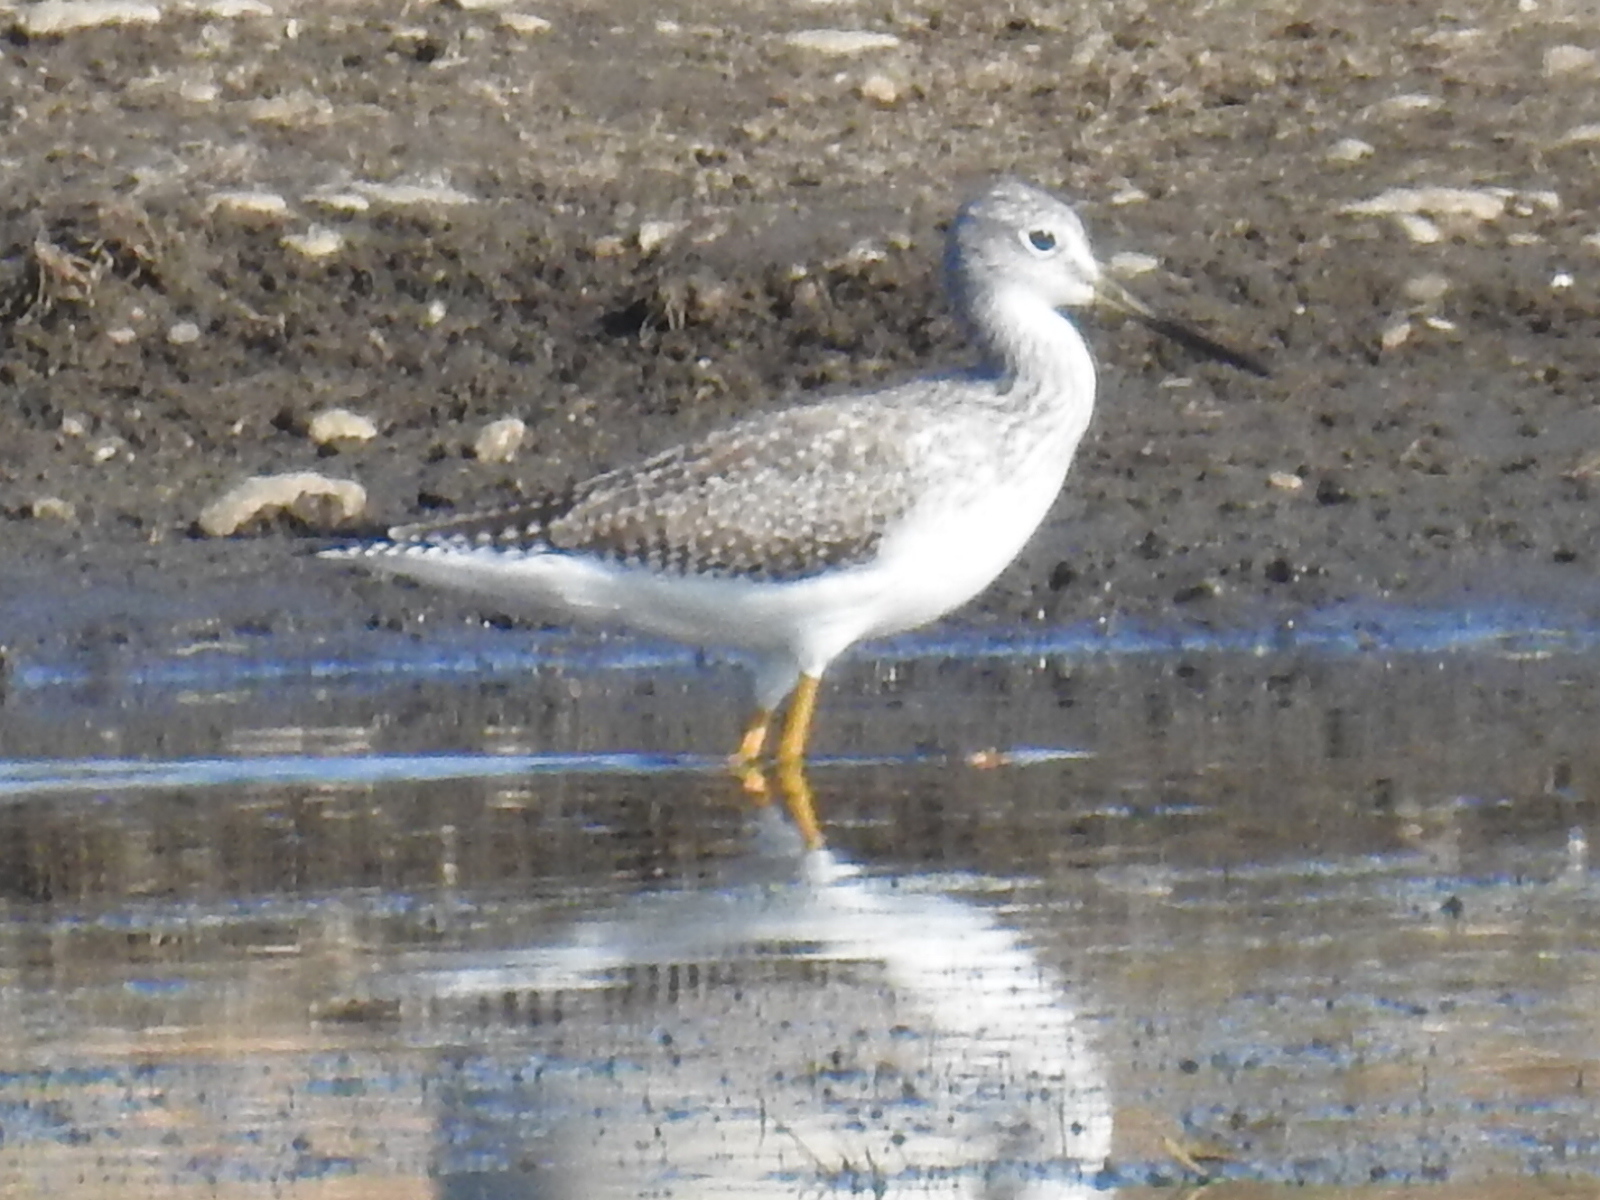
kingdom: Animalia
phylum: Chordata
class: Aves
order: Charadriiformes
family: Scolopacidae
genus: Tringa
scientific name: Tringa melanoleuca
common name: Greater yellowlegs
